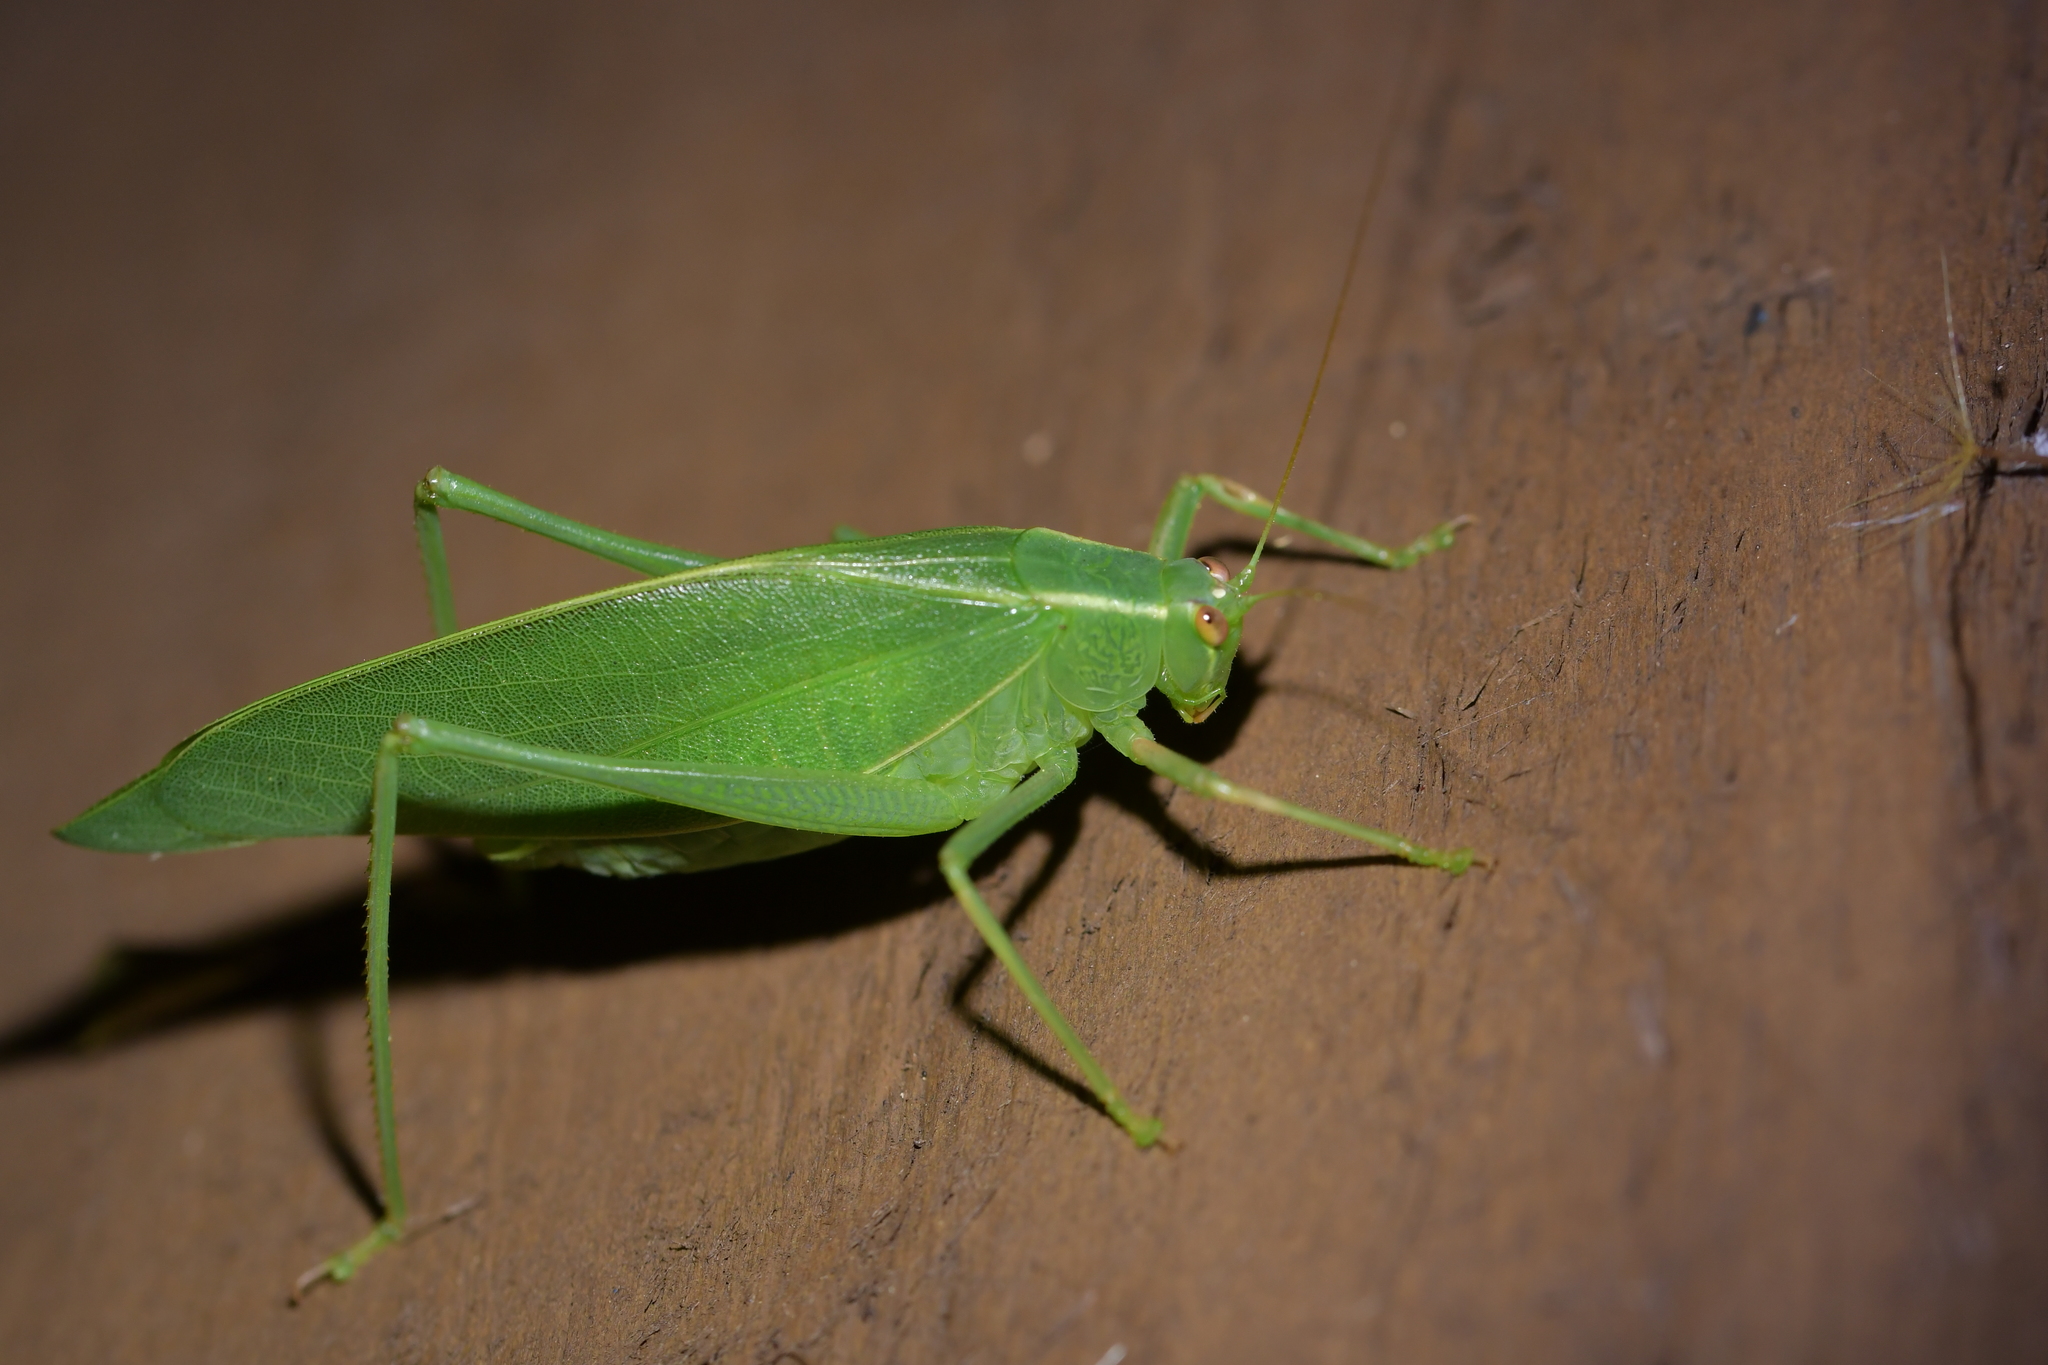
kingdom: Animalia
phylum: Arthropoda
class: Insecta
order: Orthoptera
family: Tettigoniidae
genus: Caedicia
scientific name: Caedicia simplex
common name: Common garden katydid
